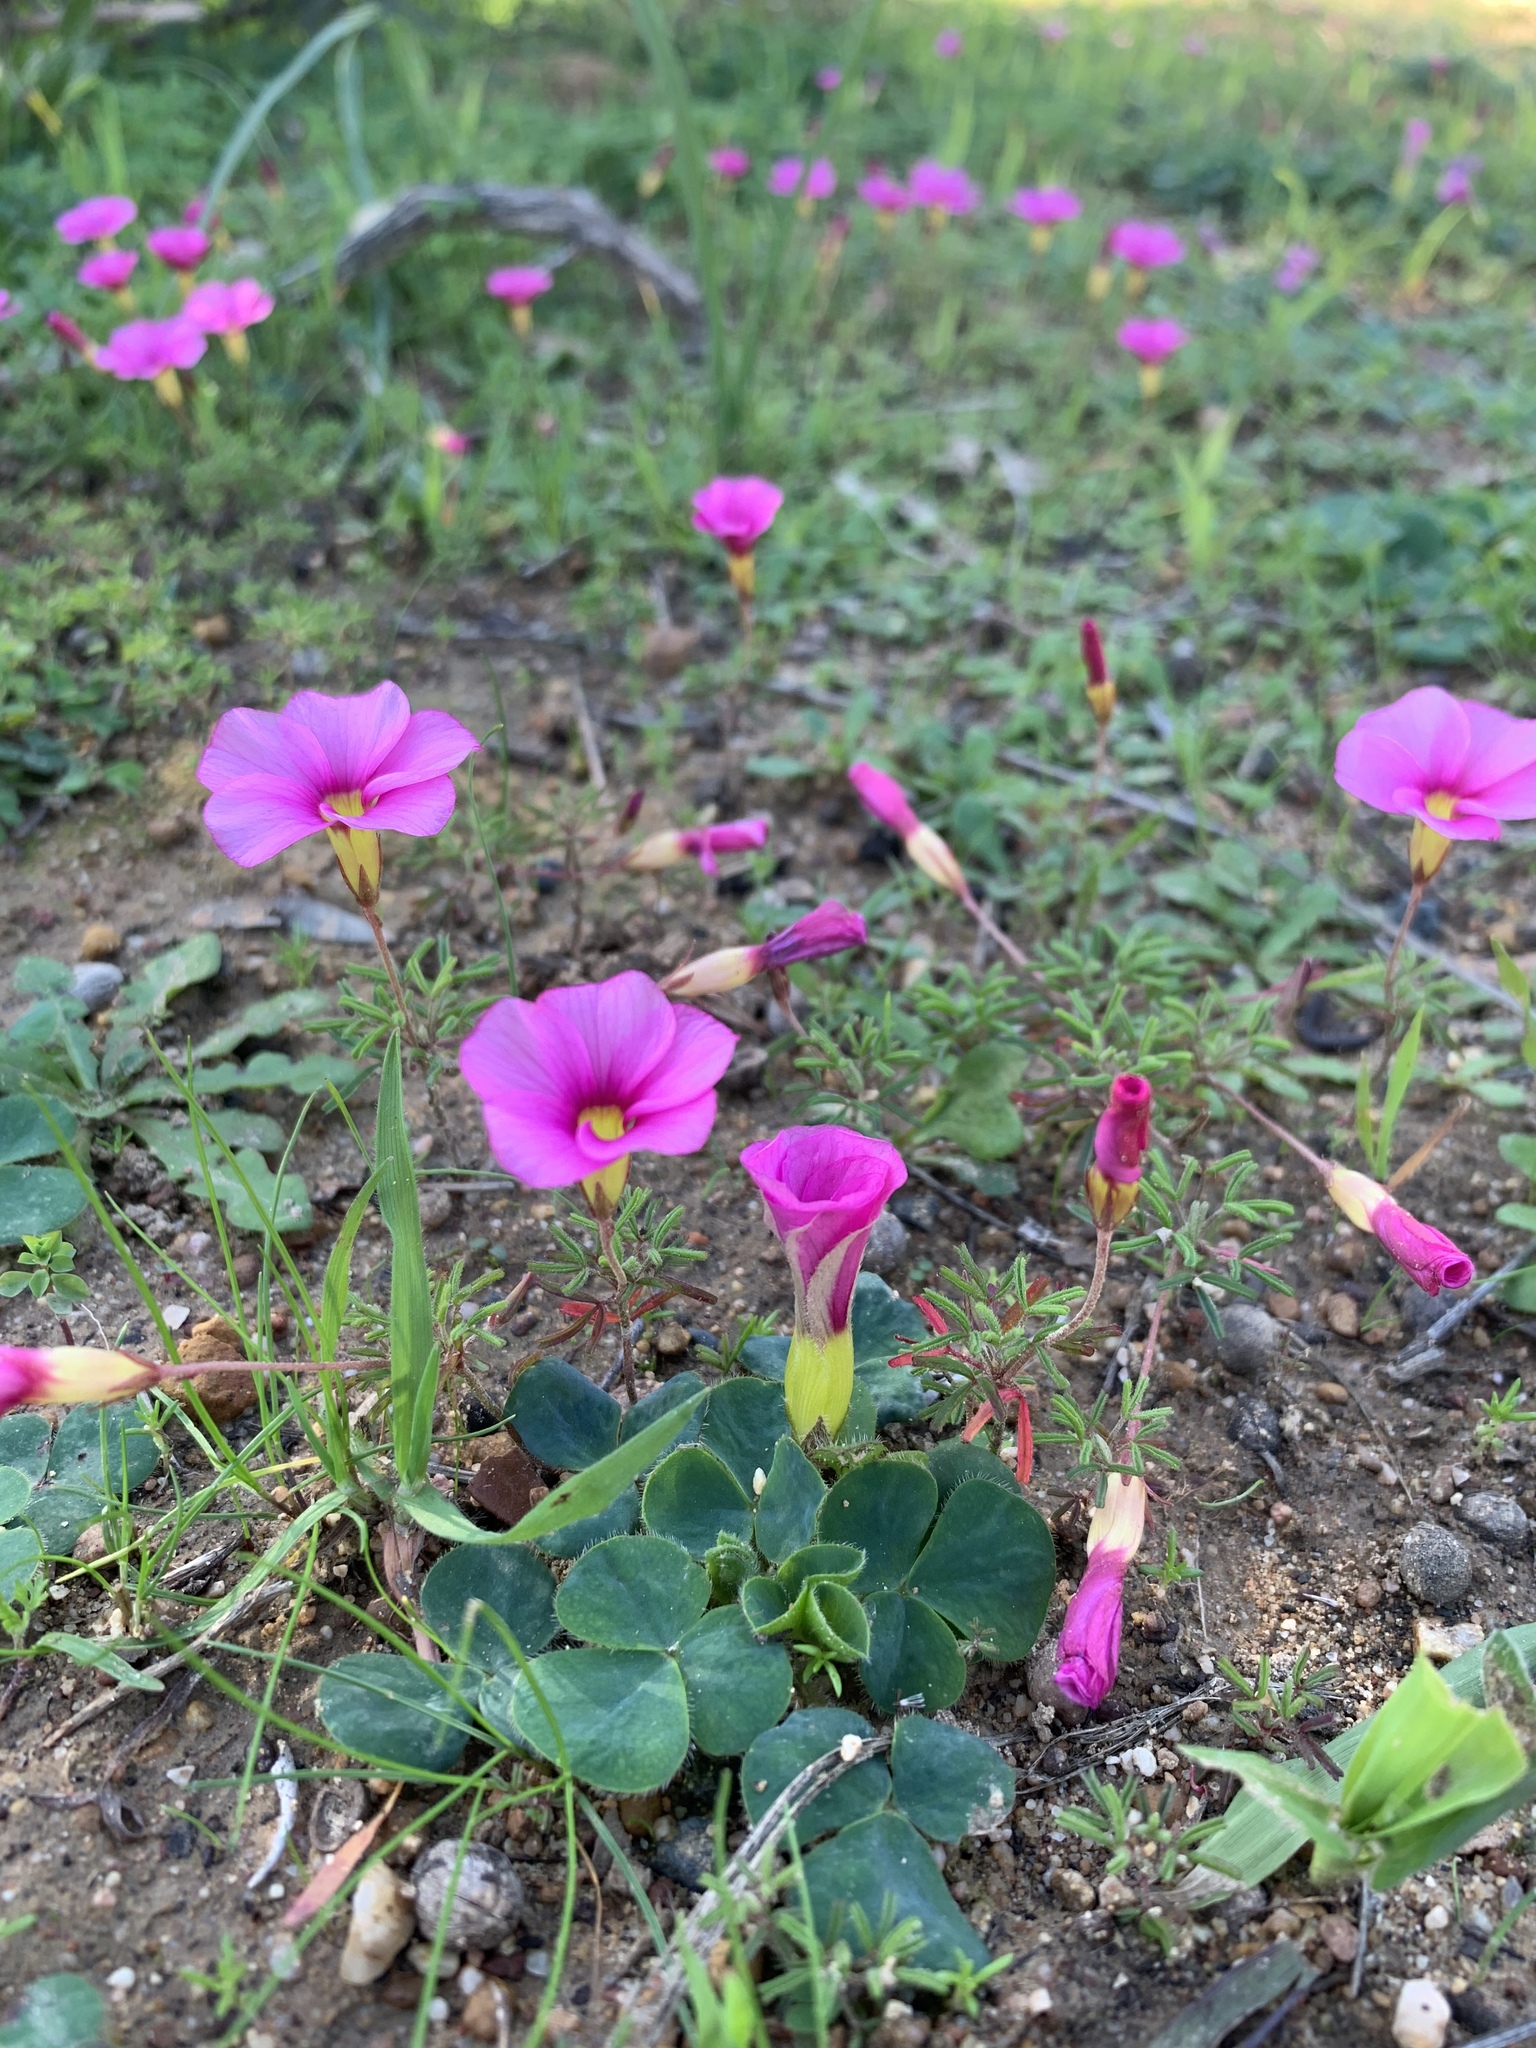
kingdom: Plantae
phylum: Tracheophyta
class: Magnoliopsida
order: Oxalidales
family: Oxalidaceae
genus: Oxalis
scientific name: Oxalis purpurea
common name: Purple woodsorrel
